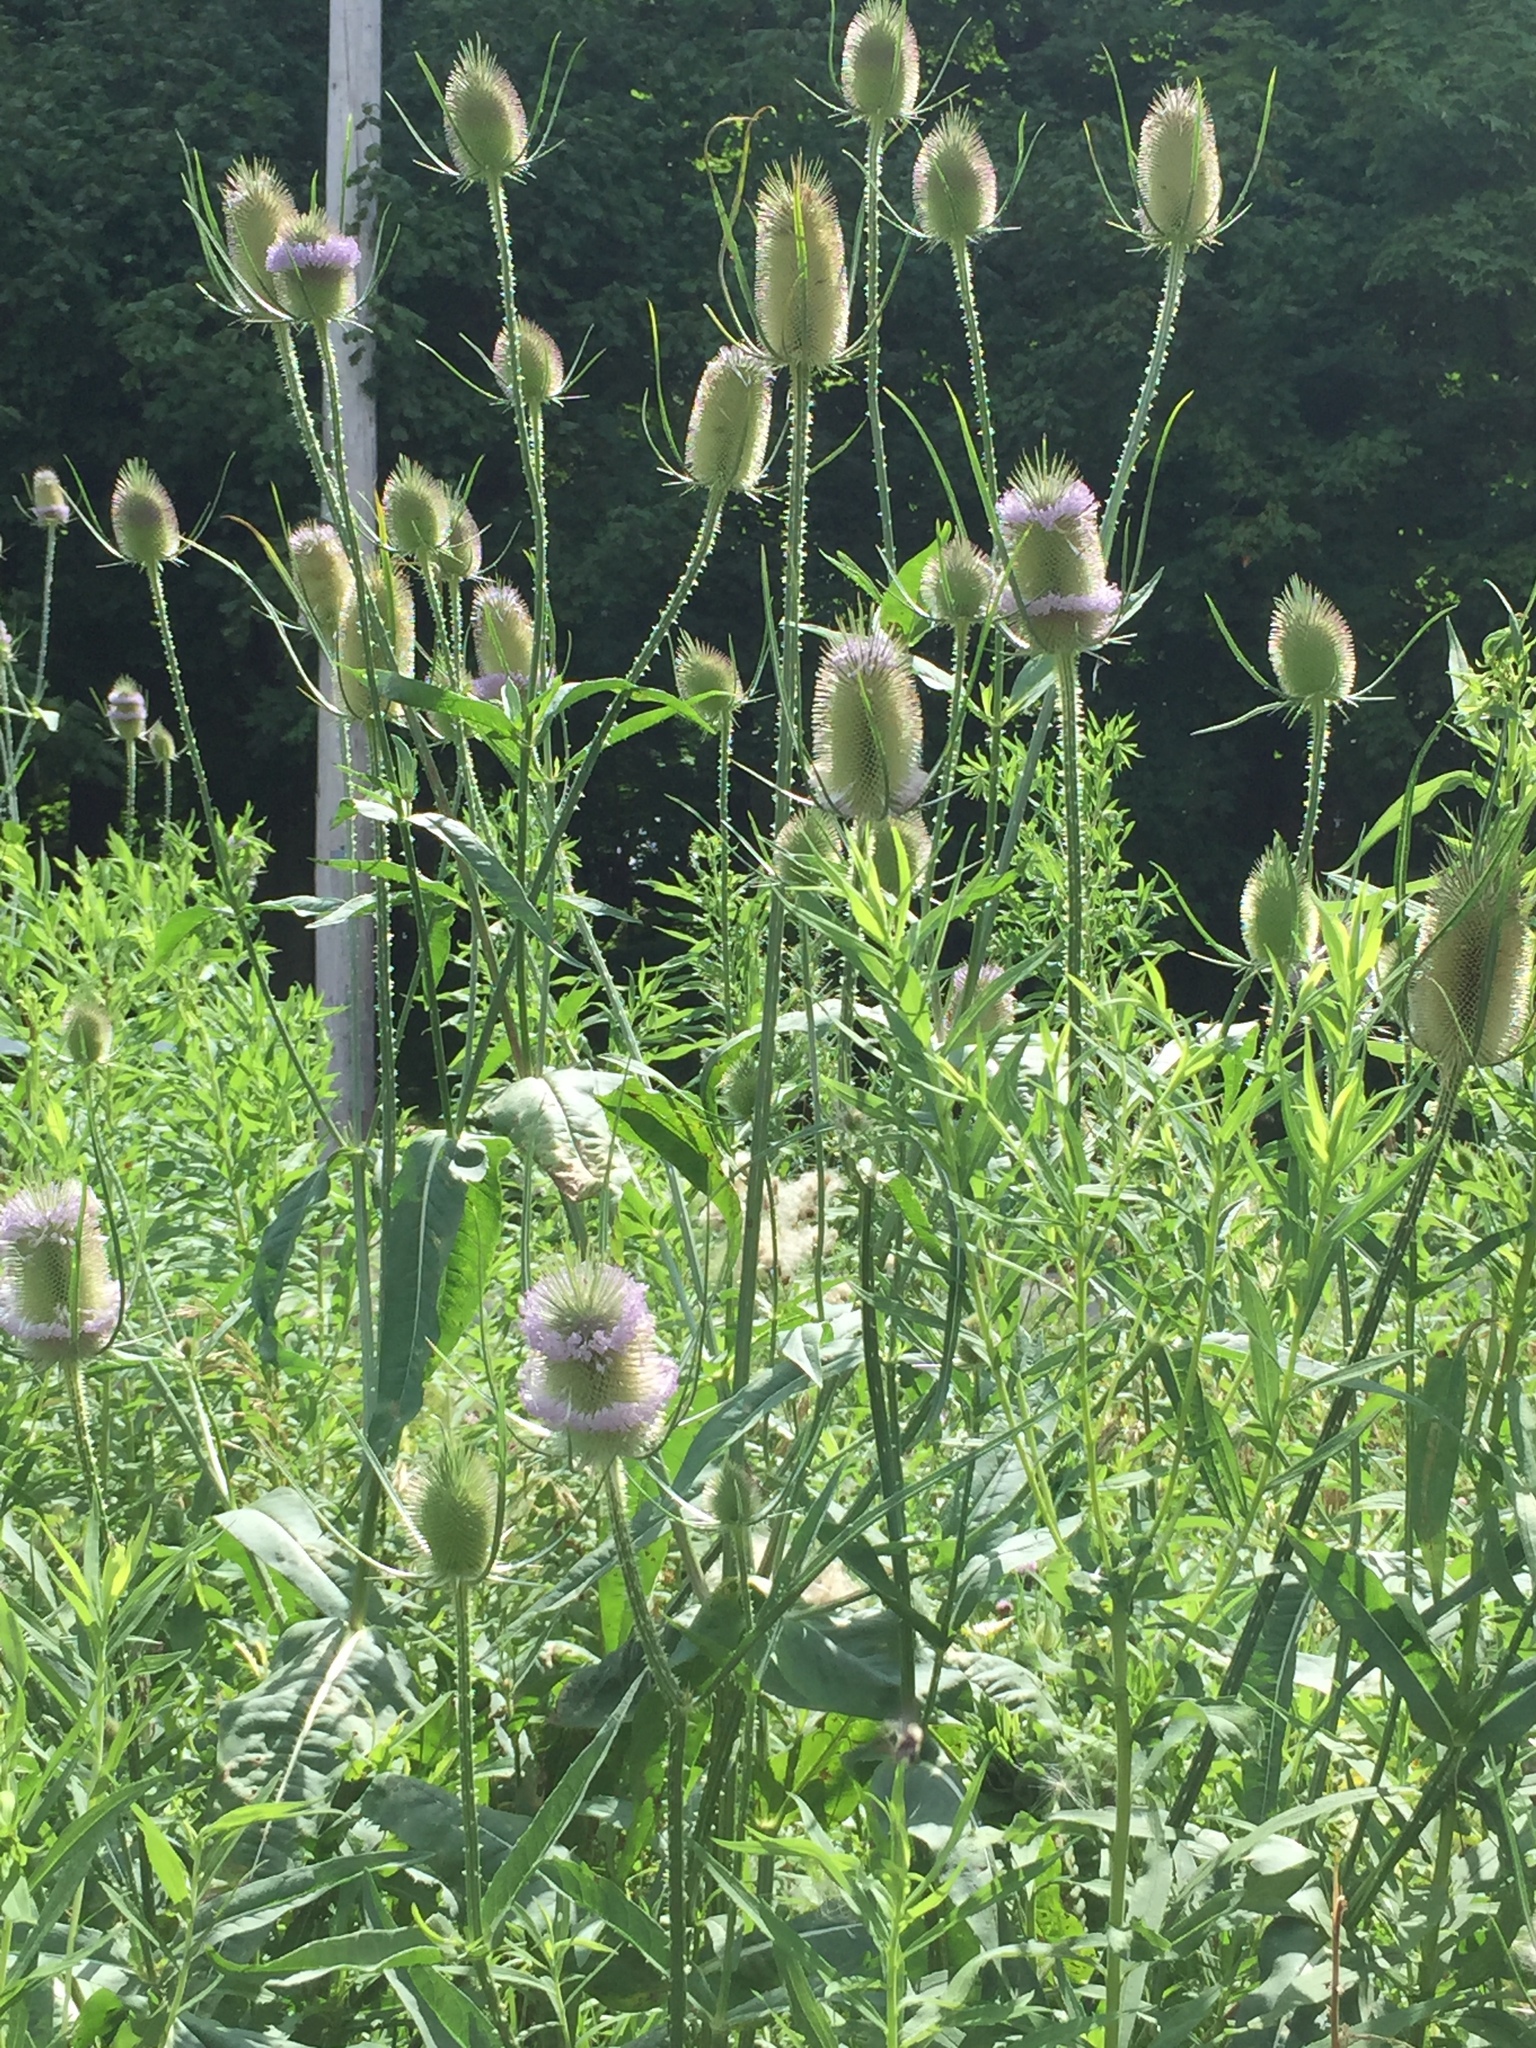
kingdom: Plantae
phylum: Tracheophyta
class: Magnoliopsida
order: Dipsacales
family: Caprifoliaceae
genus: Dipsacus
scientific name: Dipsacus fullonum
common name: Teasel
